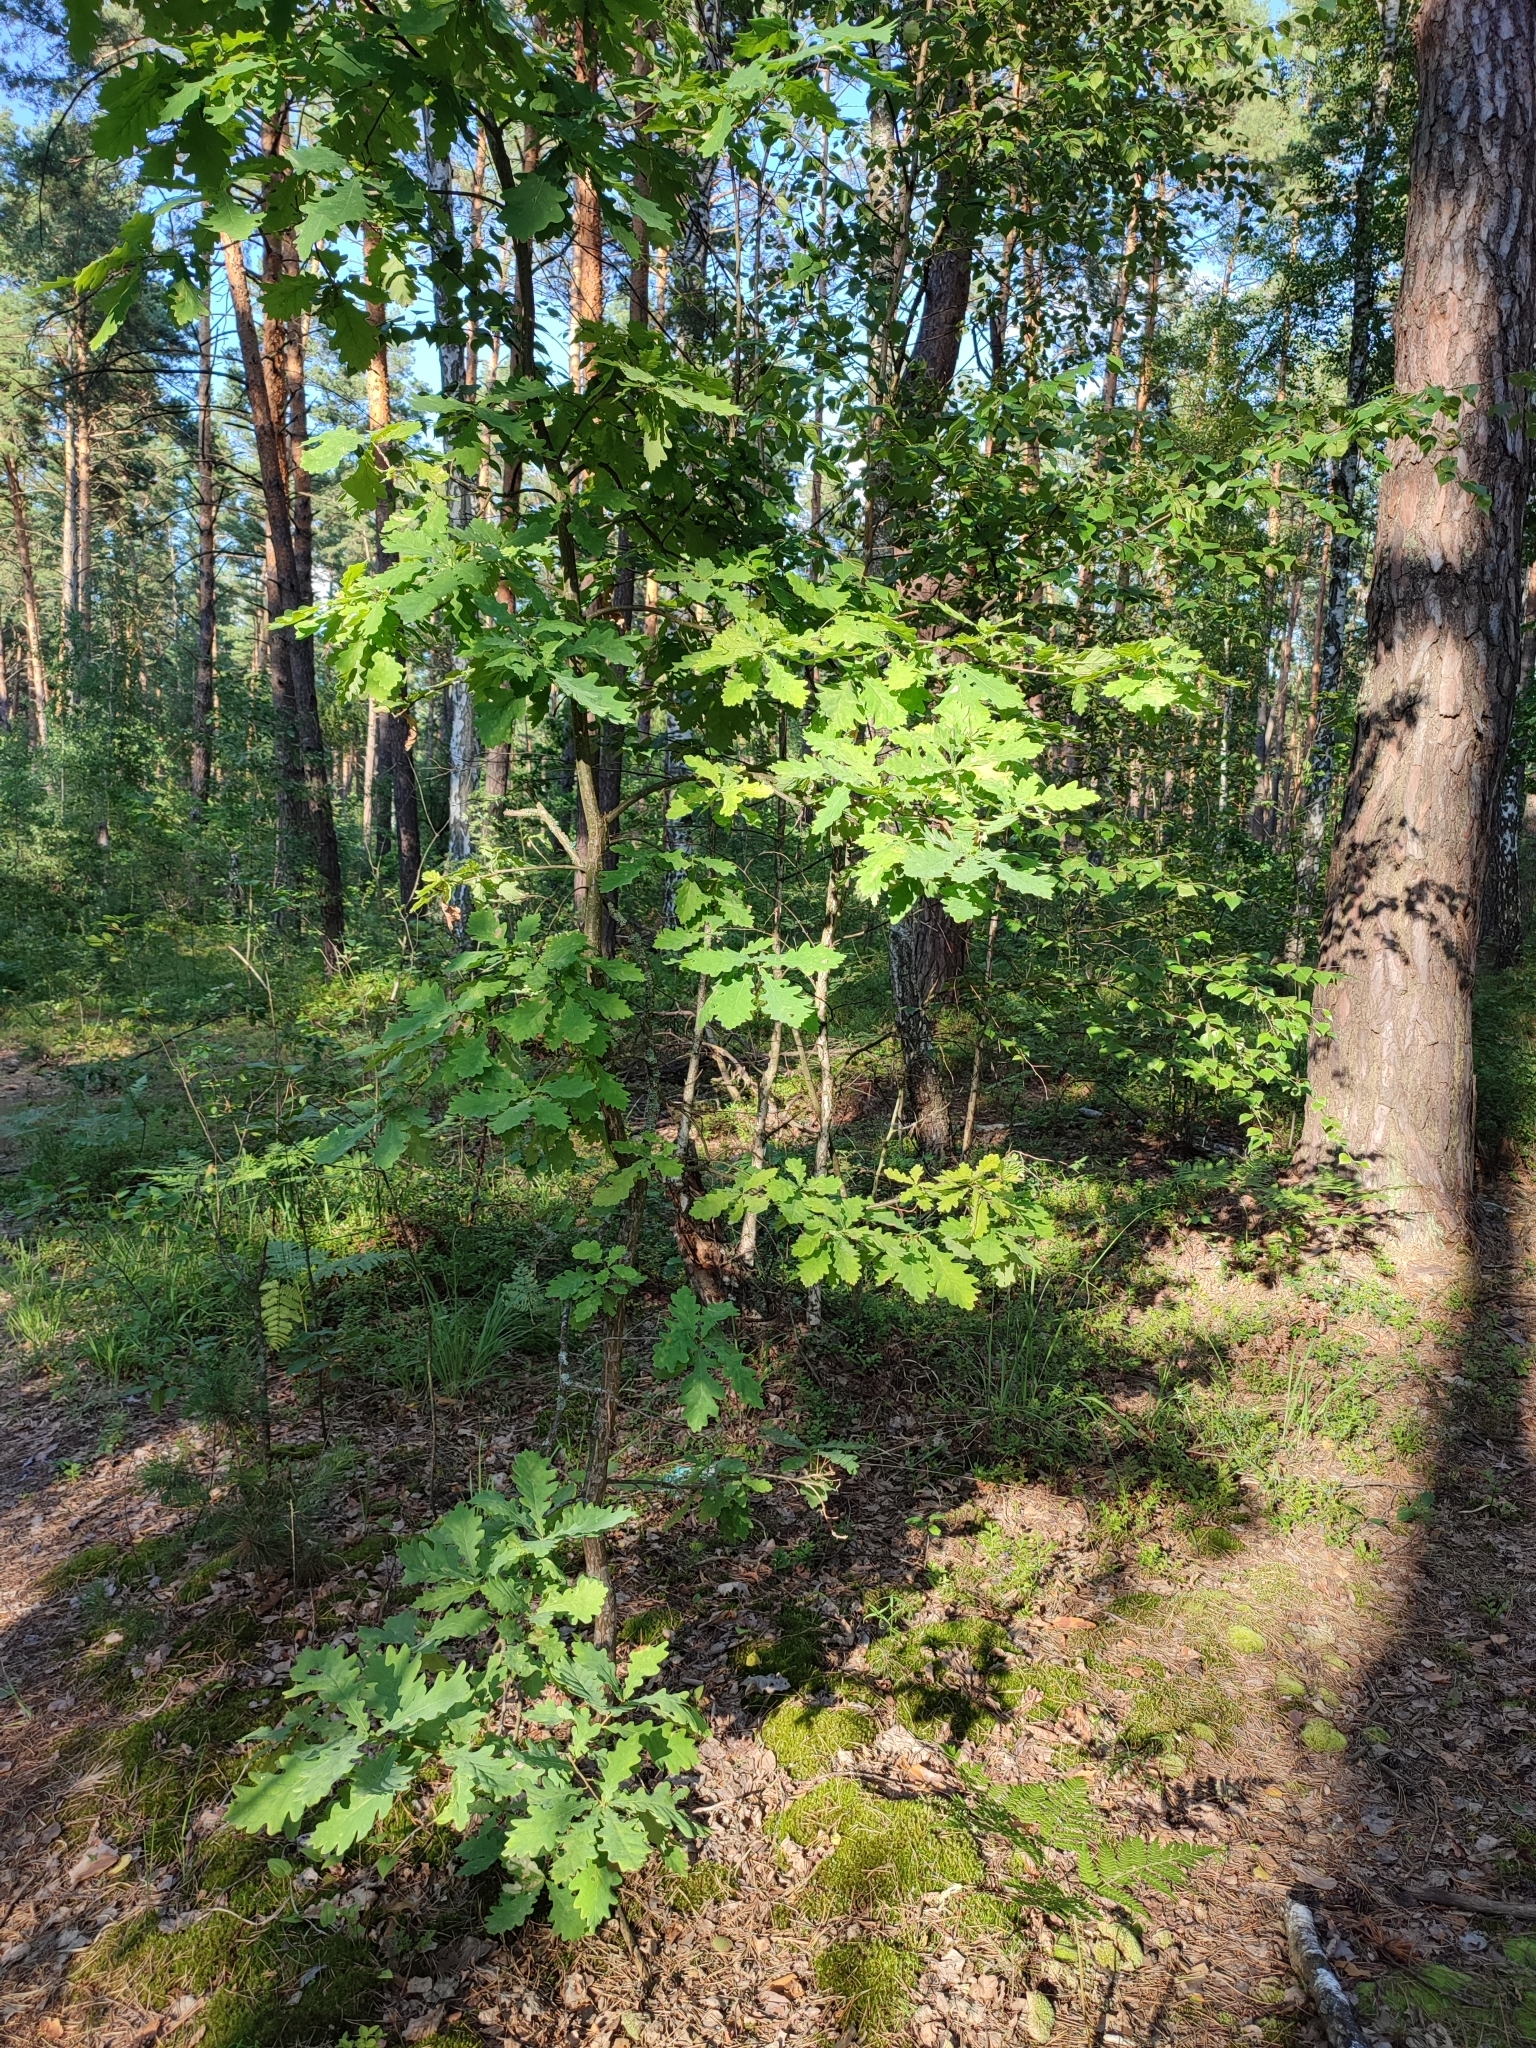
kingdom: Plantae
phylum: Tracheophyta
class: Magnoliopsida
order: Fagales
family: Fagaceae
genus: Quercus
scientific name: Quercus robur
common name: Pedunculate oak
